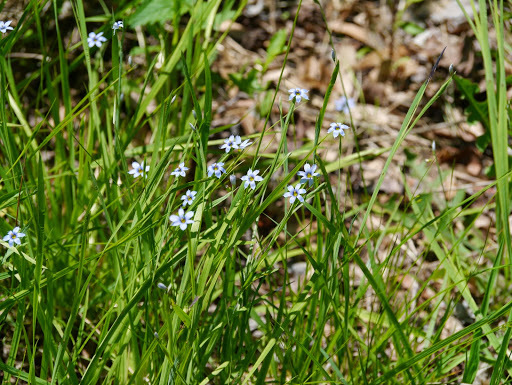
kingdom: Plantae
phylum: Tracheophyta
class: Liliopsida
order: Asparagales
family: Iridaceae
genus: Sisyrinchium
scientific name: Sisyrinchium angustifolium
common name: Narrow-leaf blue-eyed-grass
